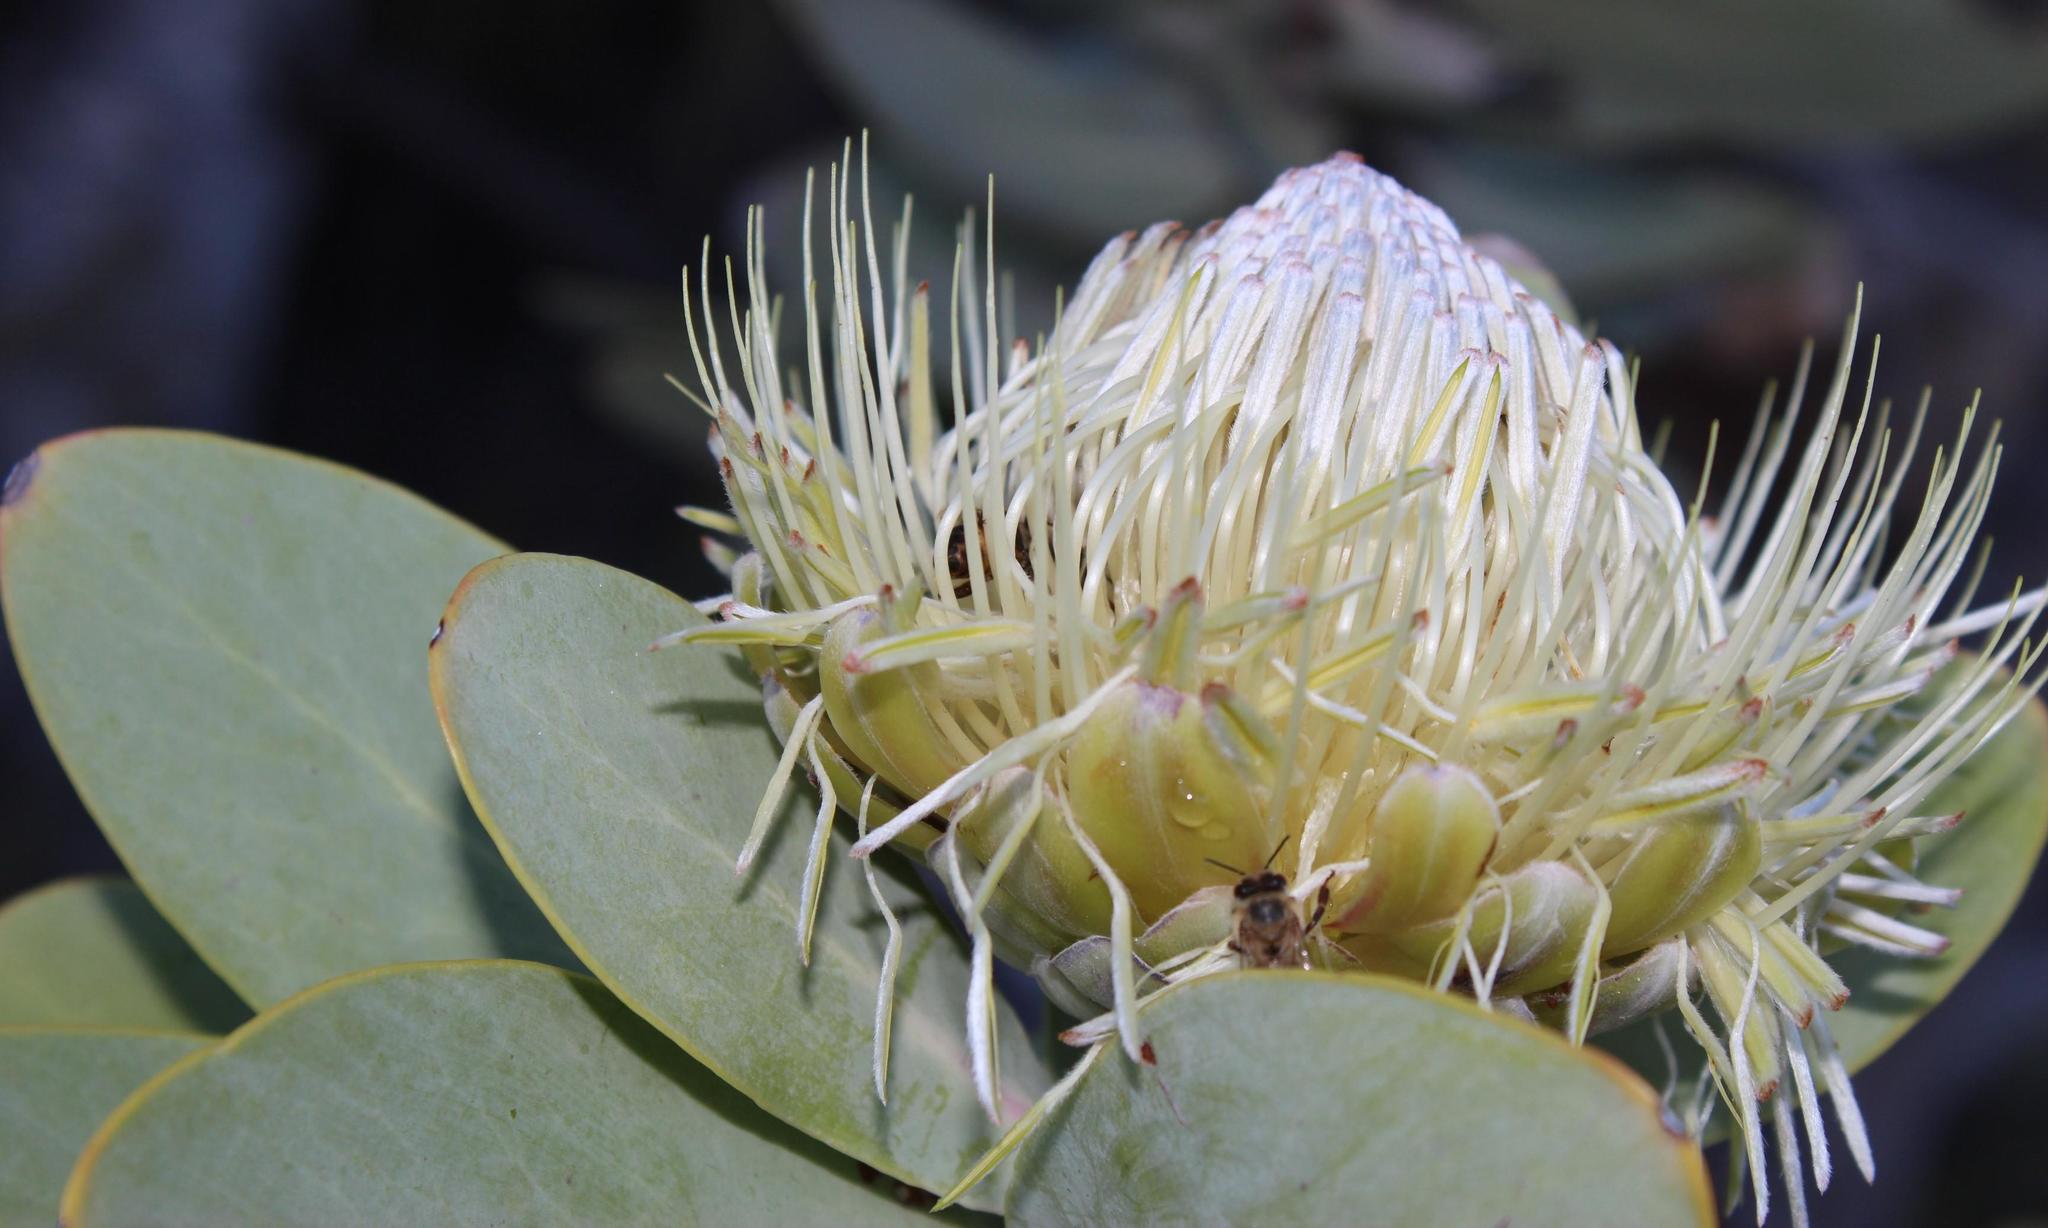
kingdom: Plantae
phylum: Tracheophyta
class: Magnoliopsida
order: Proteales
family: Proteaceae
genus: Protea
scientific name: Protea nitida
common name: Tree protea
